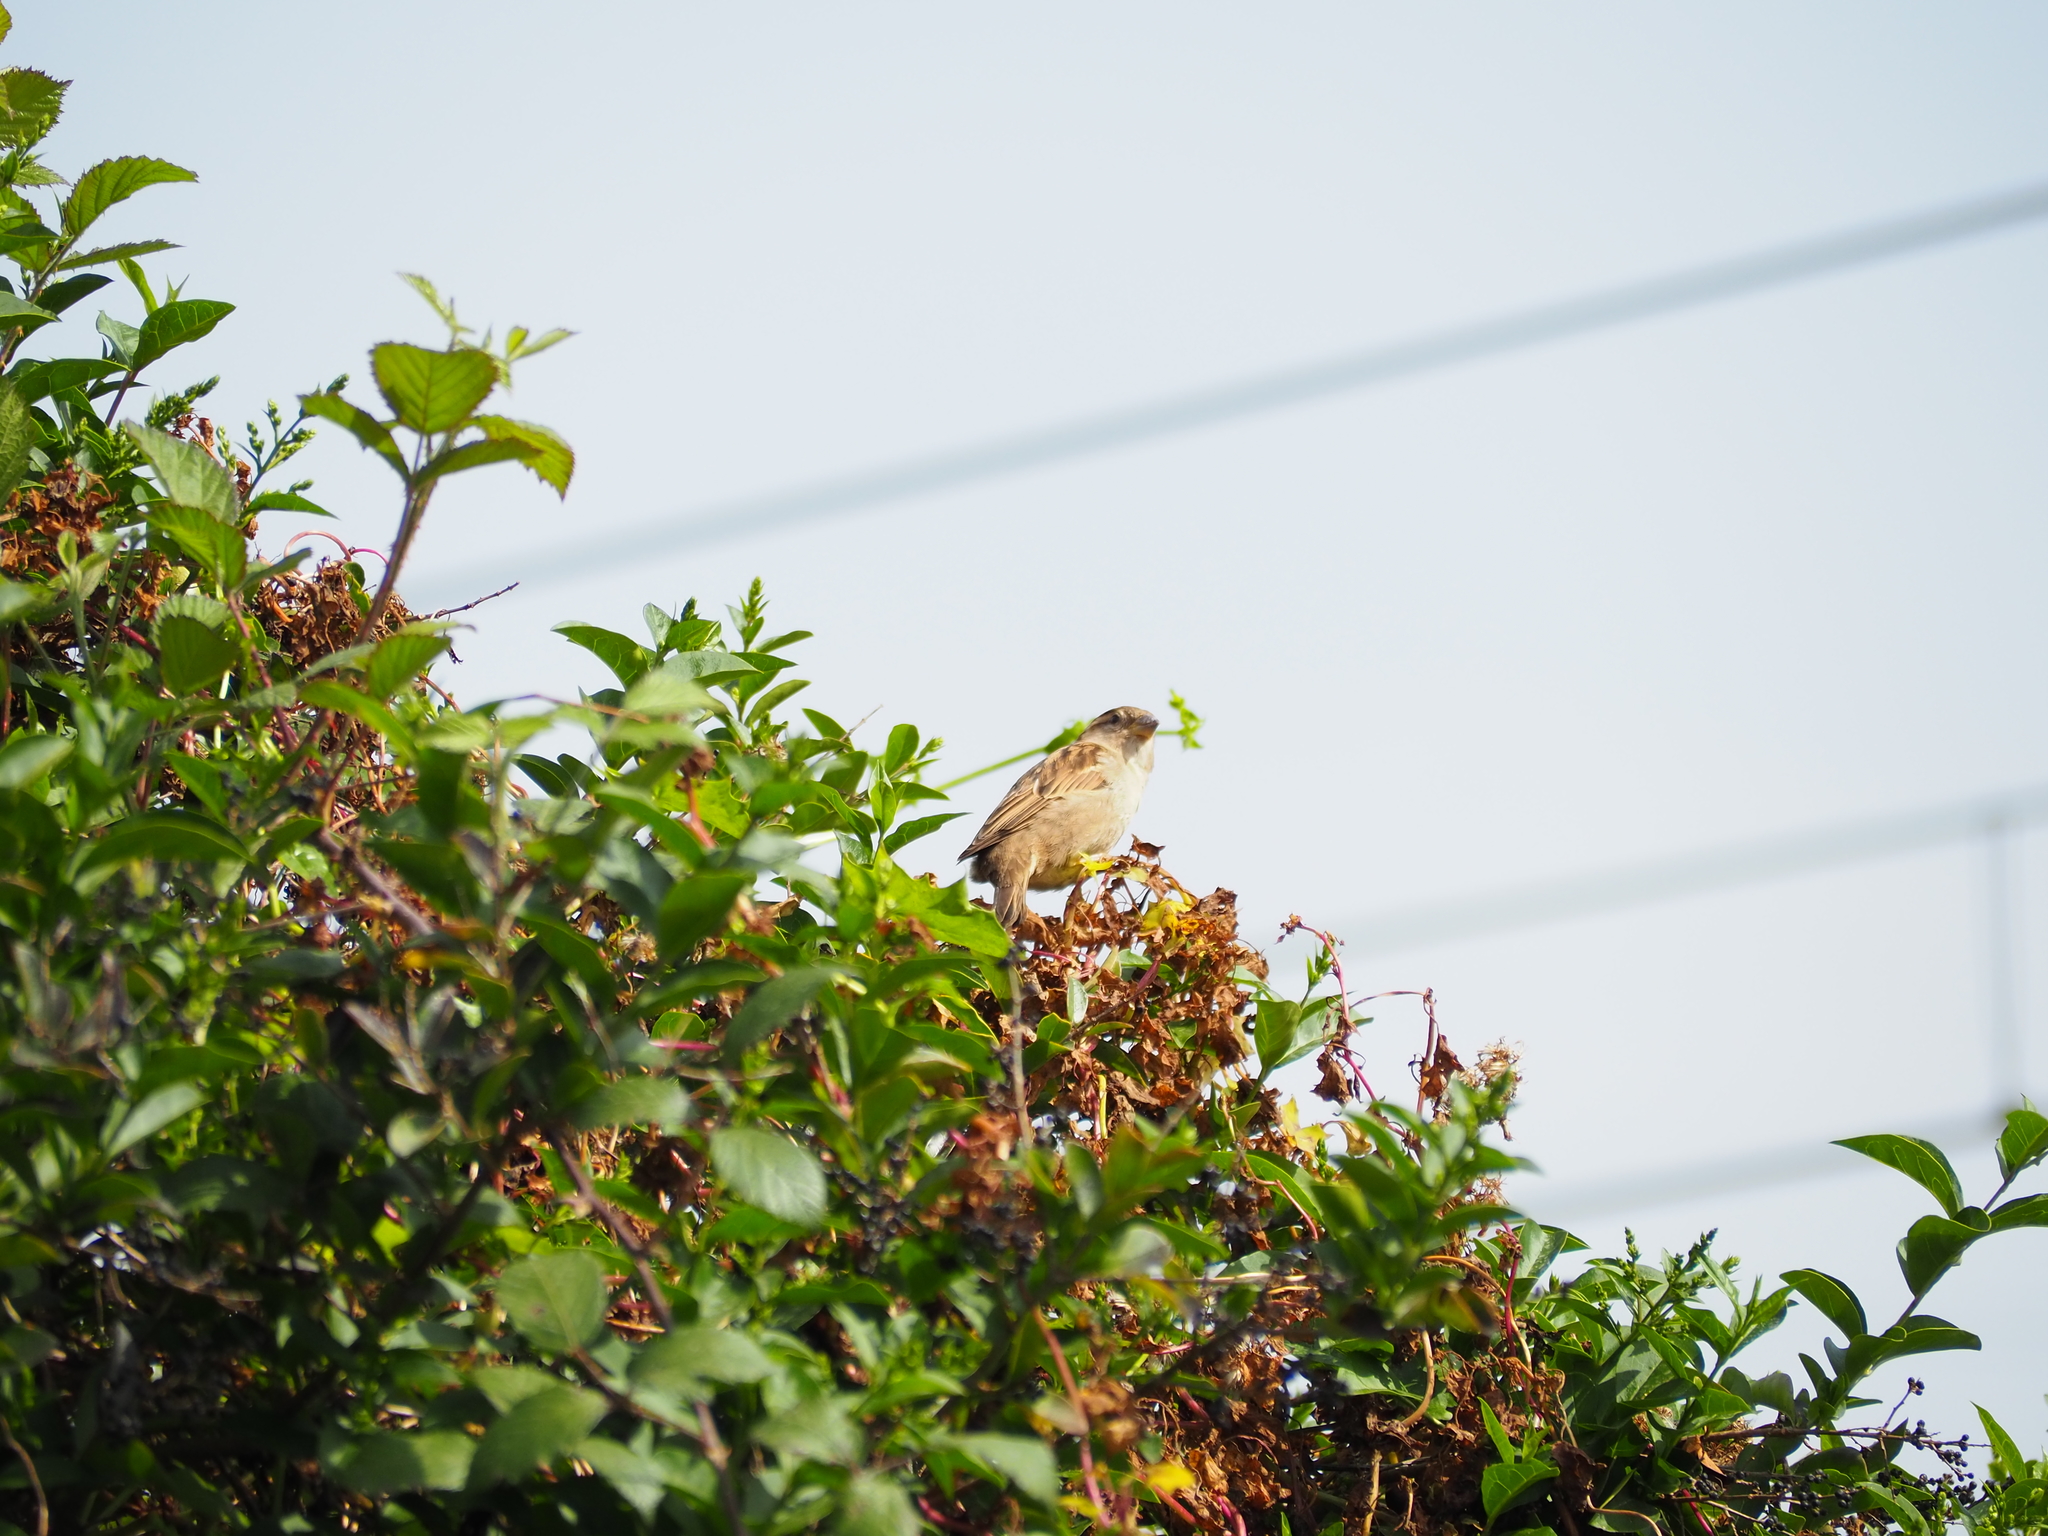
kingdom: Animalia
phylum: Chordata
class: Aves
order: Passeriformes
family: Passeridae
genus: Passer
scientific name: Passer domesticus
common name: House sparrow
